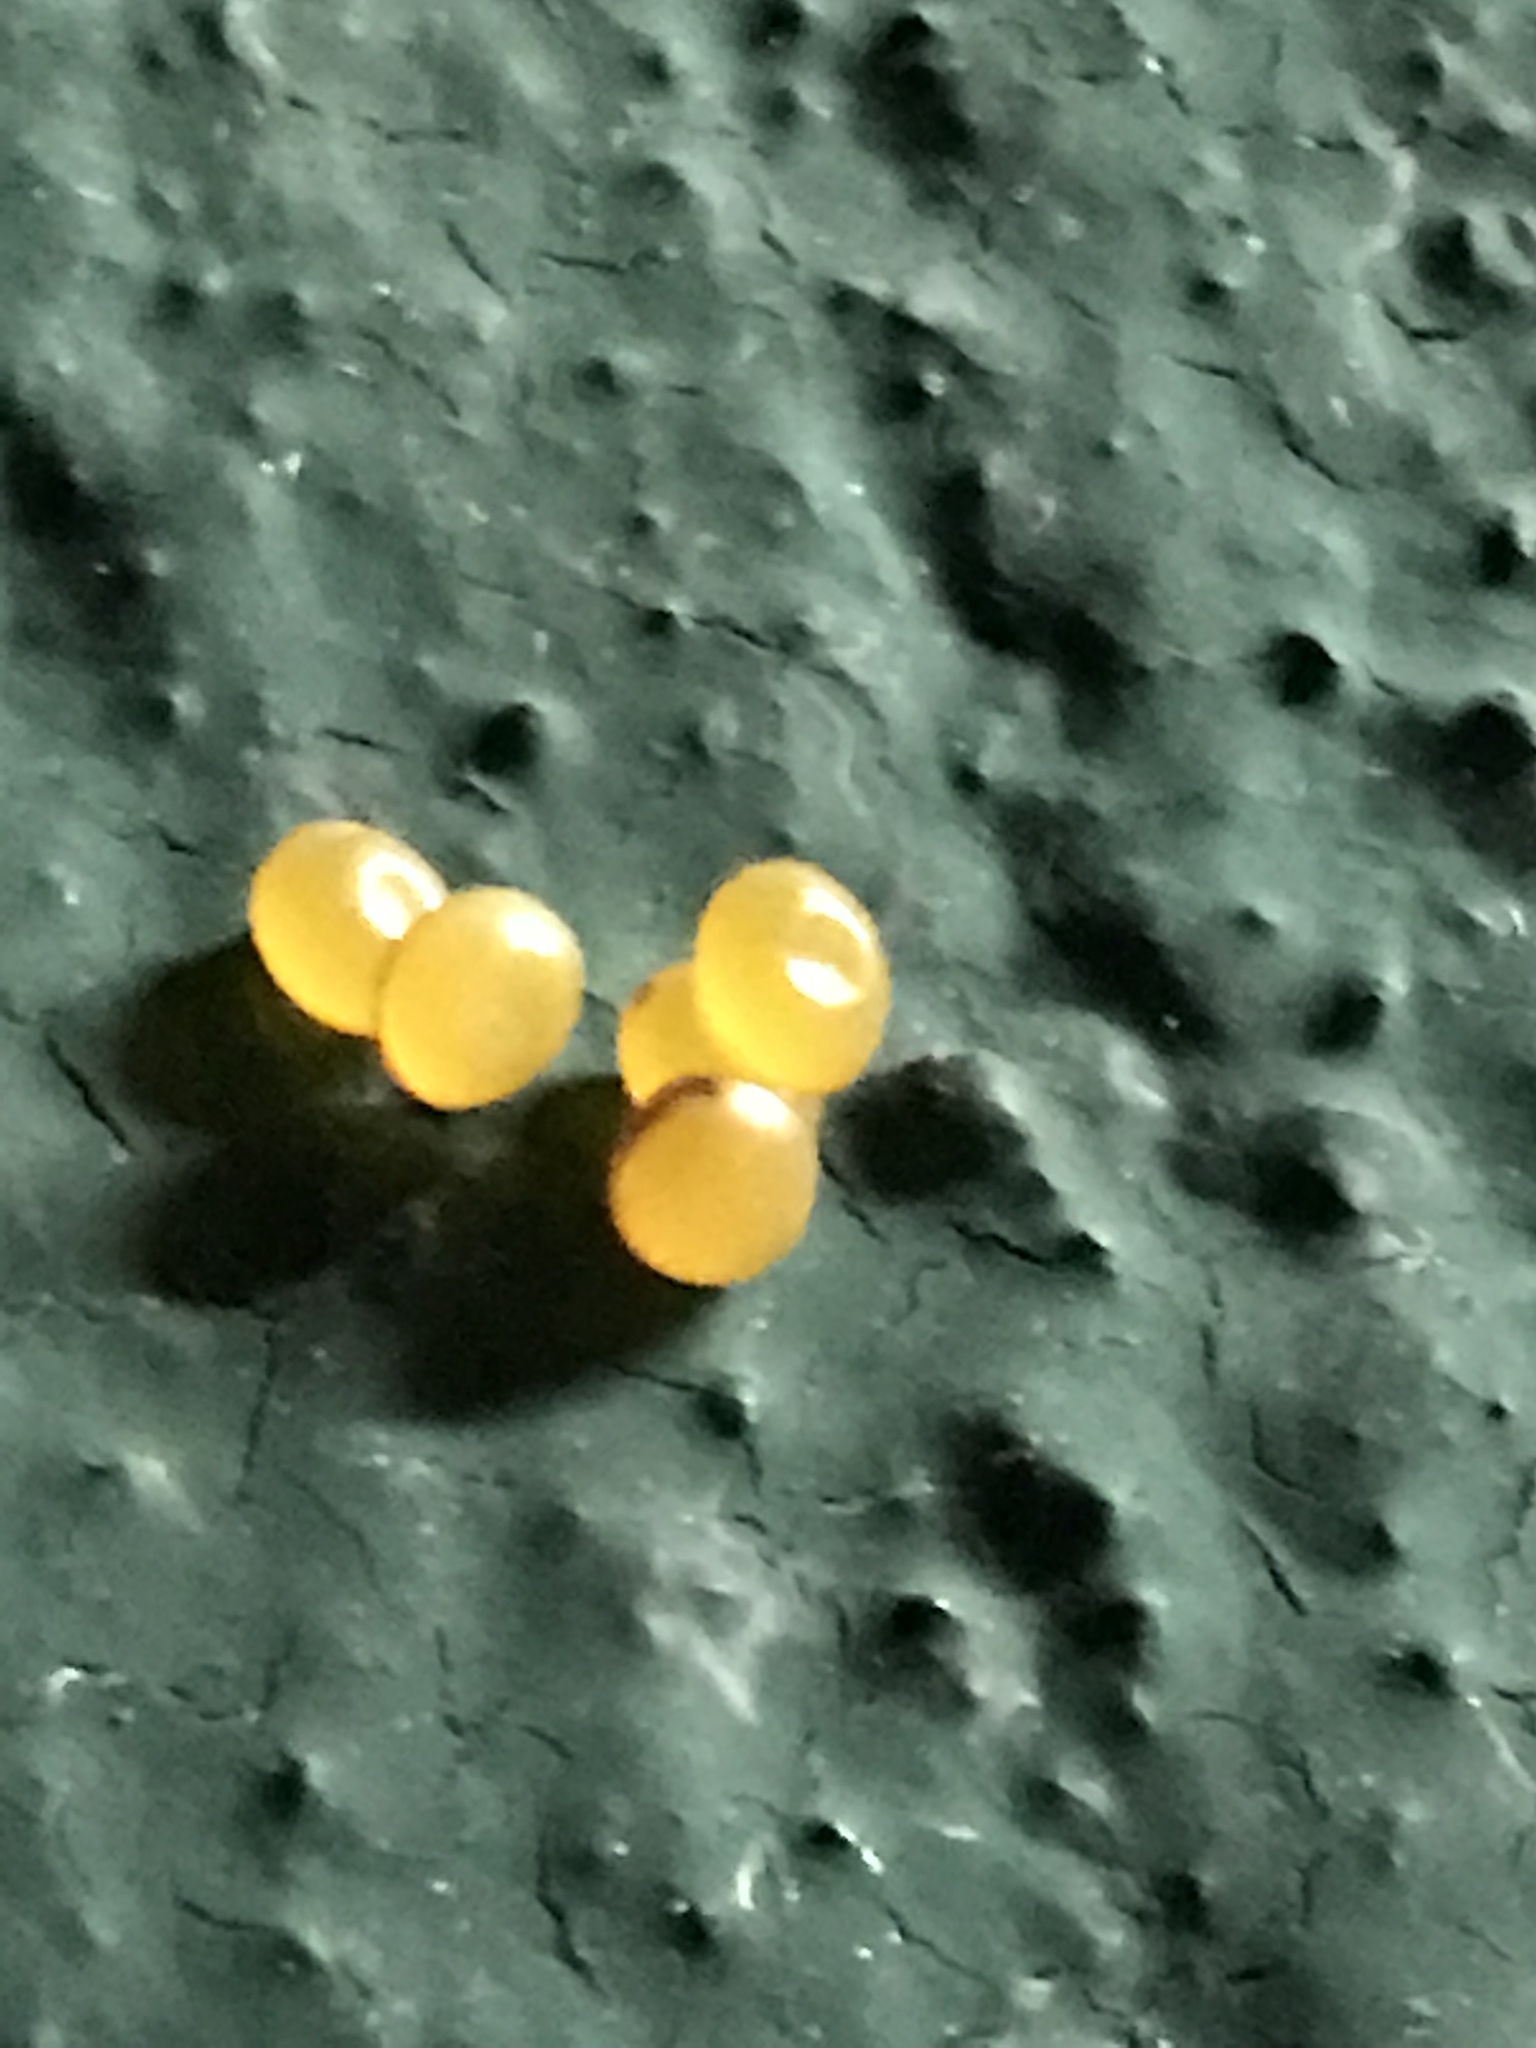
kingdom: Animalia
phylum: Arthropoda
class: Insecta
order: Lepidoptera
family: Saturniidae
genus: Eacles
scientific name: Eacles imperialis
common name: Imperial moth
